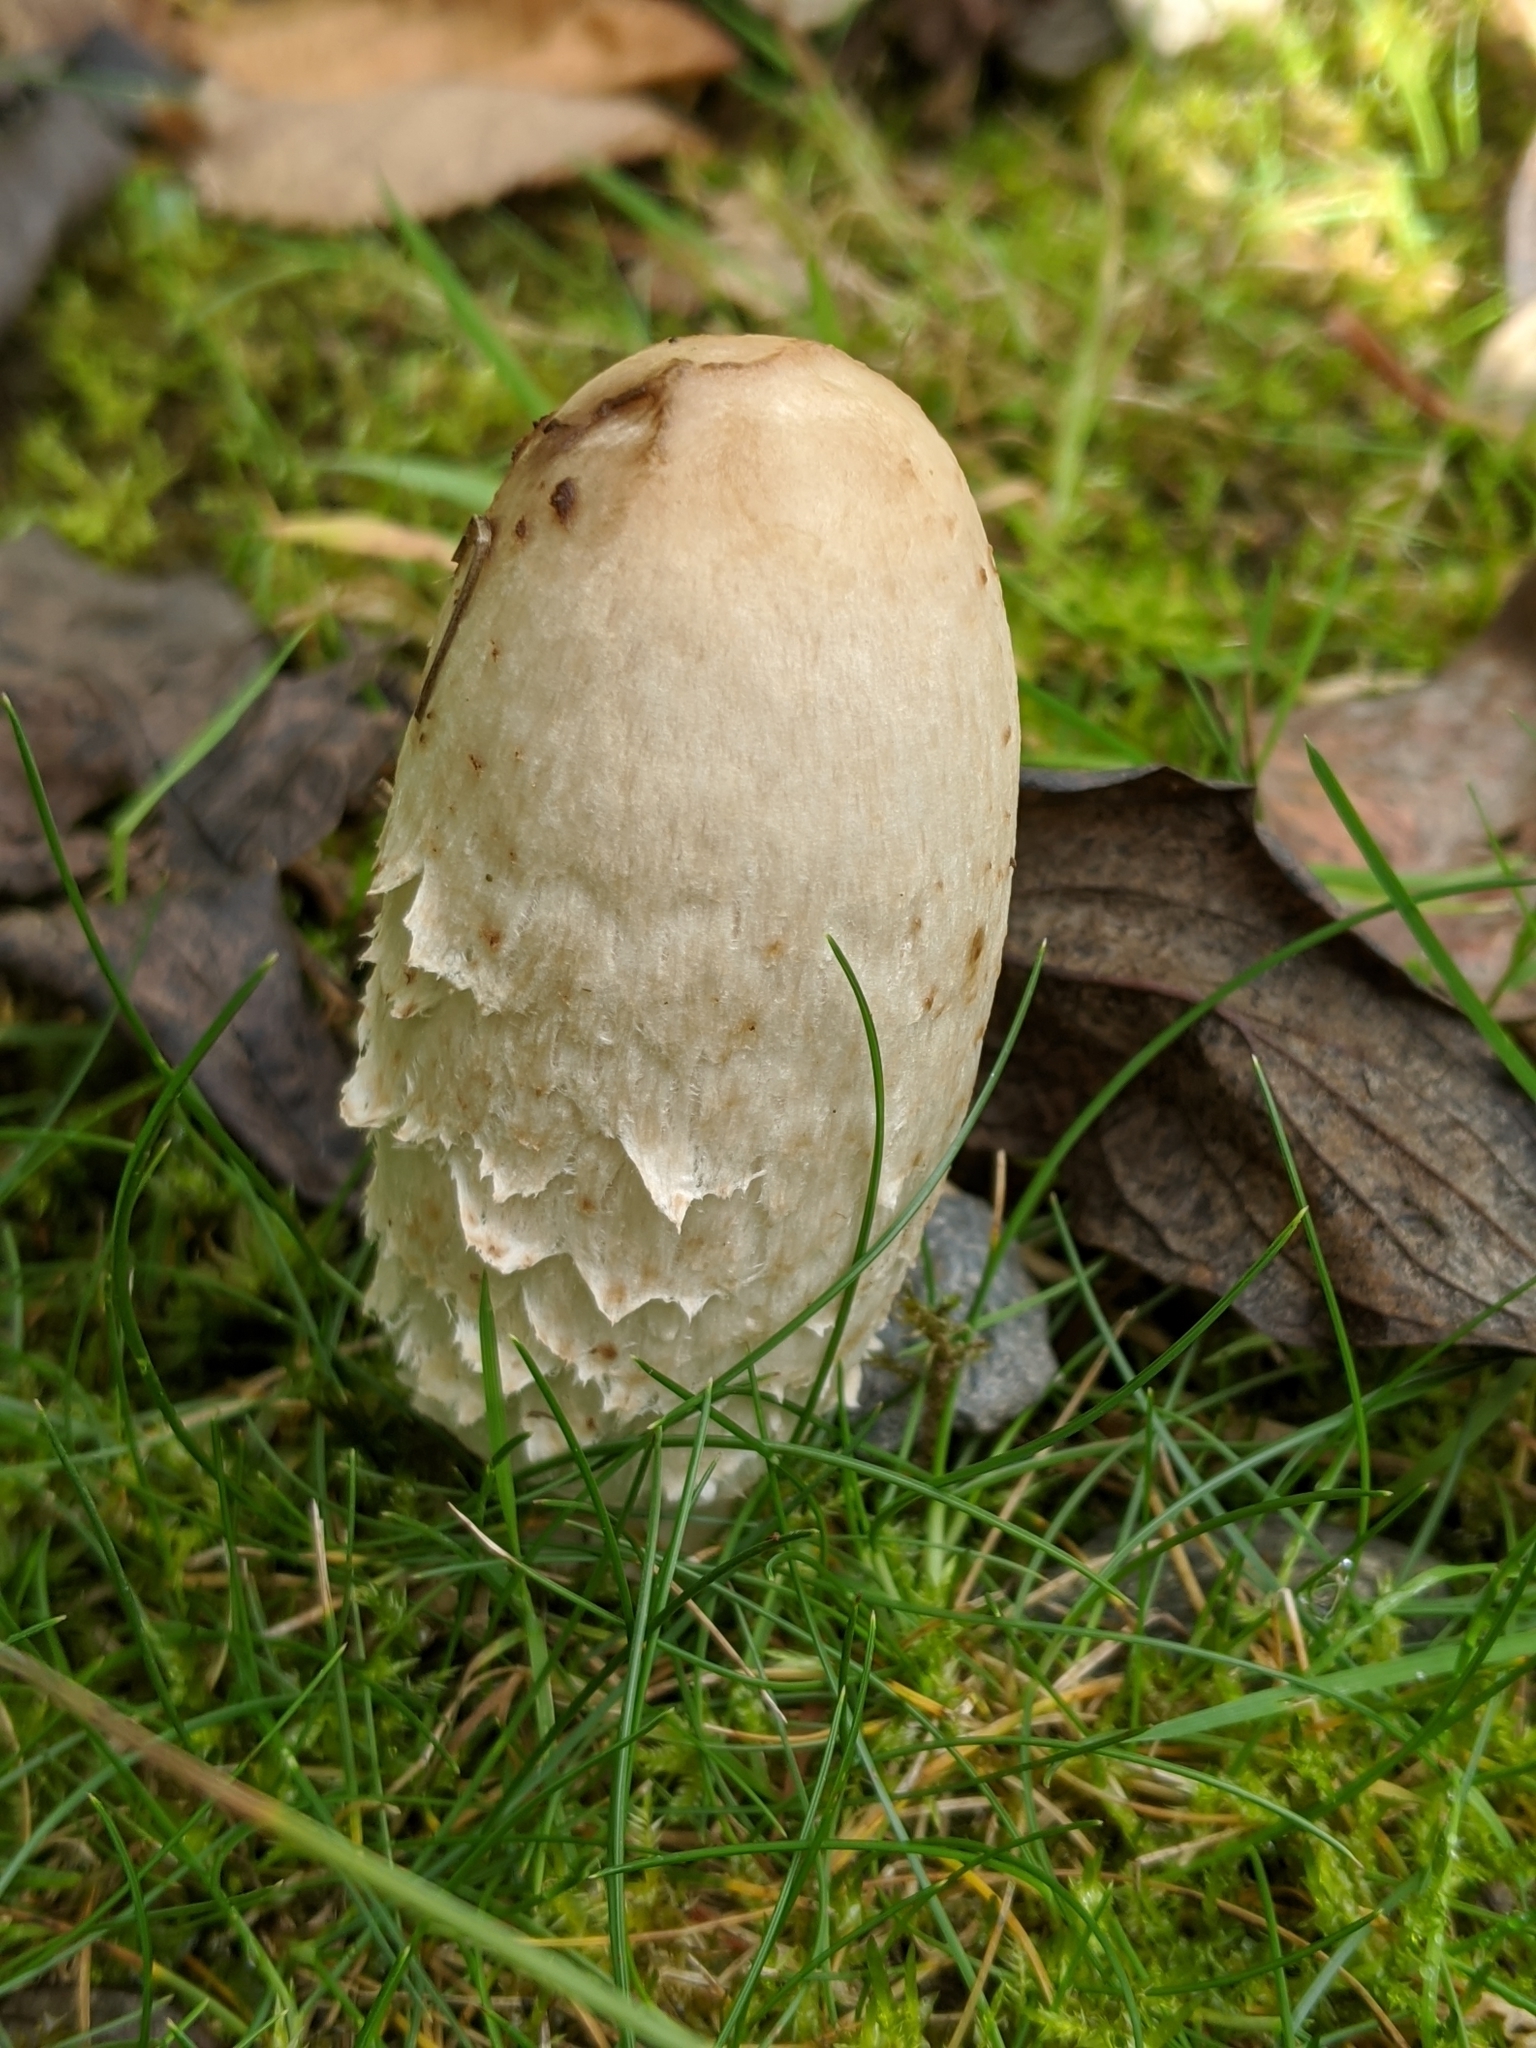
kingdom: Fungi
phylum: Basidiomycota
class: Agaricomycetes
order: Agaricales
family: Agaricaceae
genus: Coprinus
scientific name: Coprinus comatus
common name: Lawyer's wig
